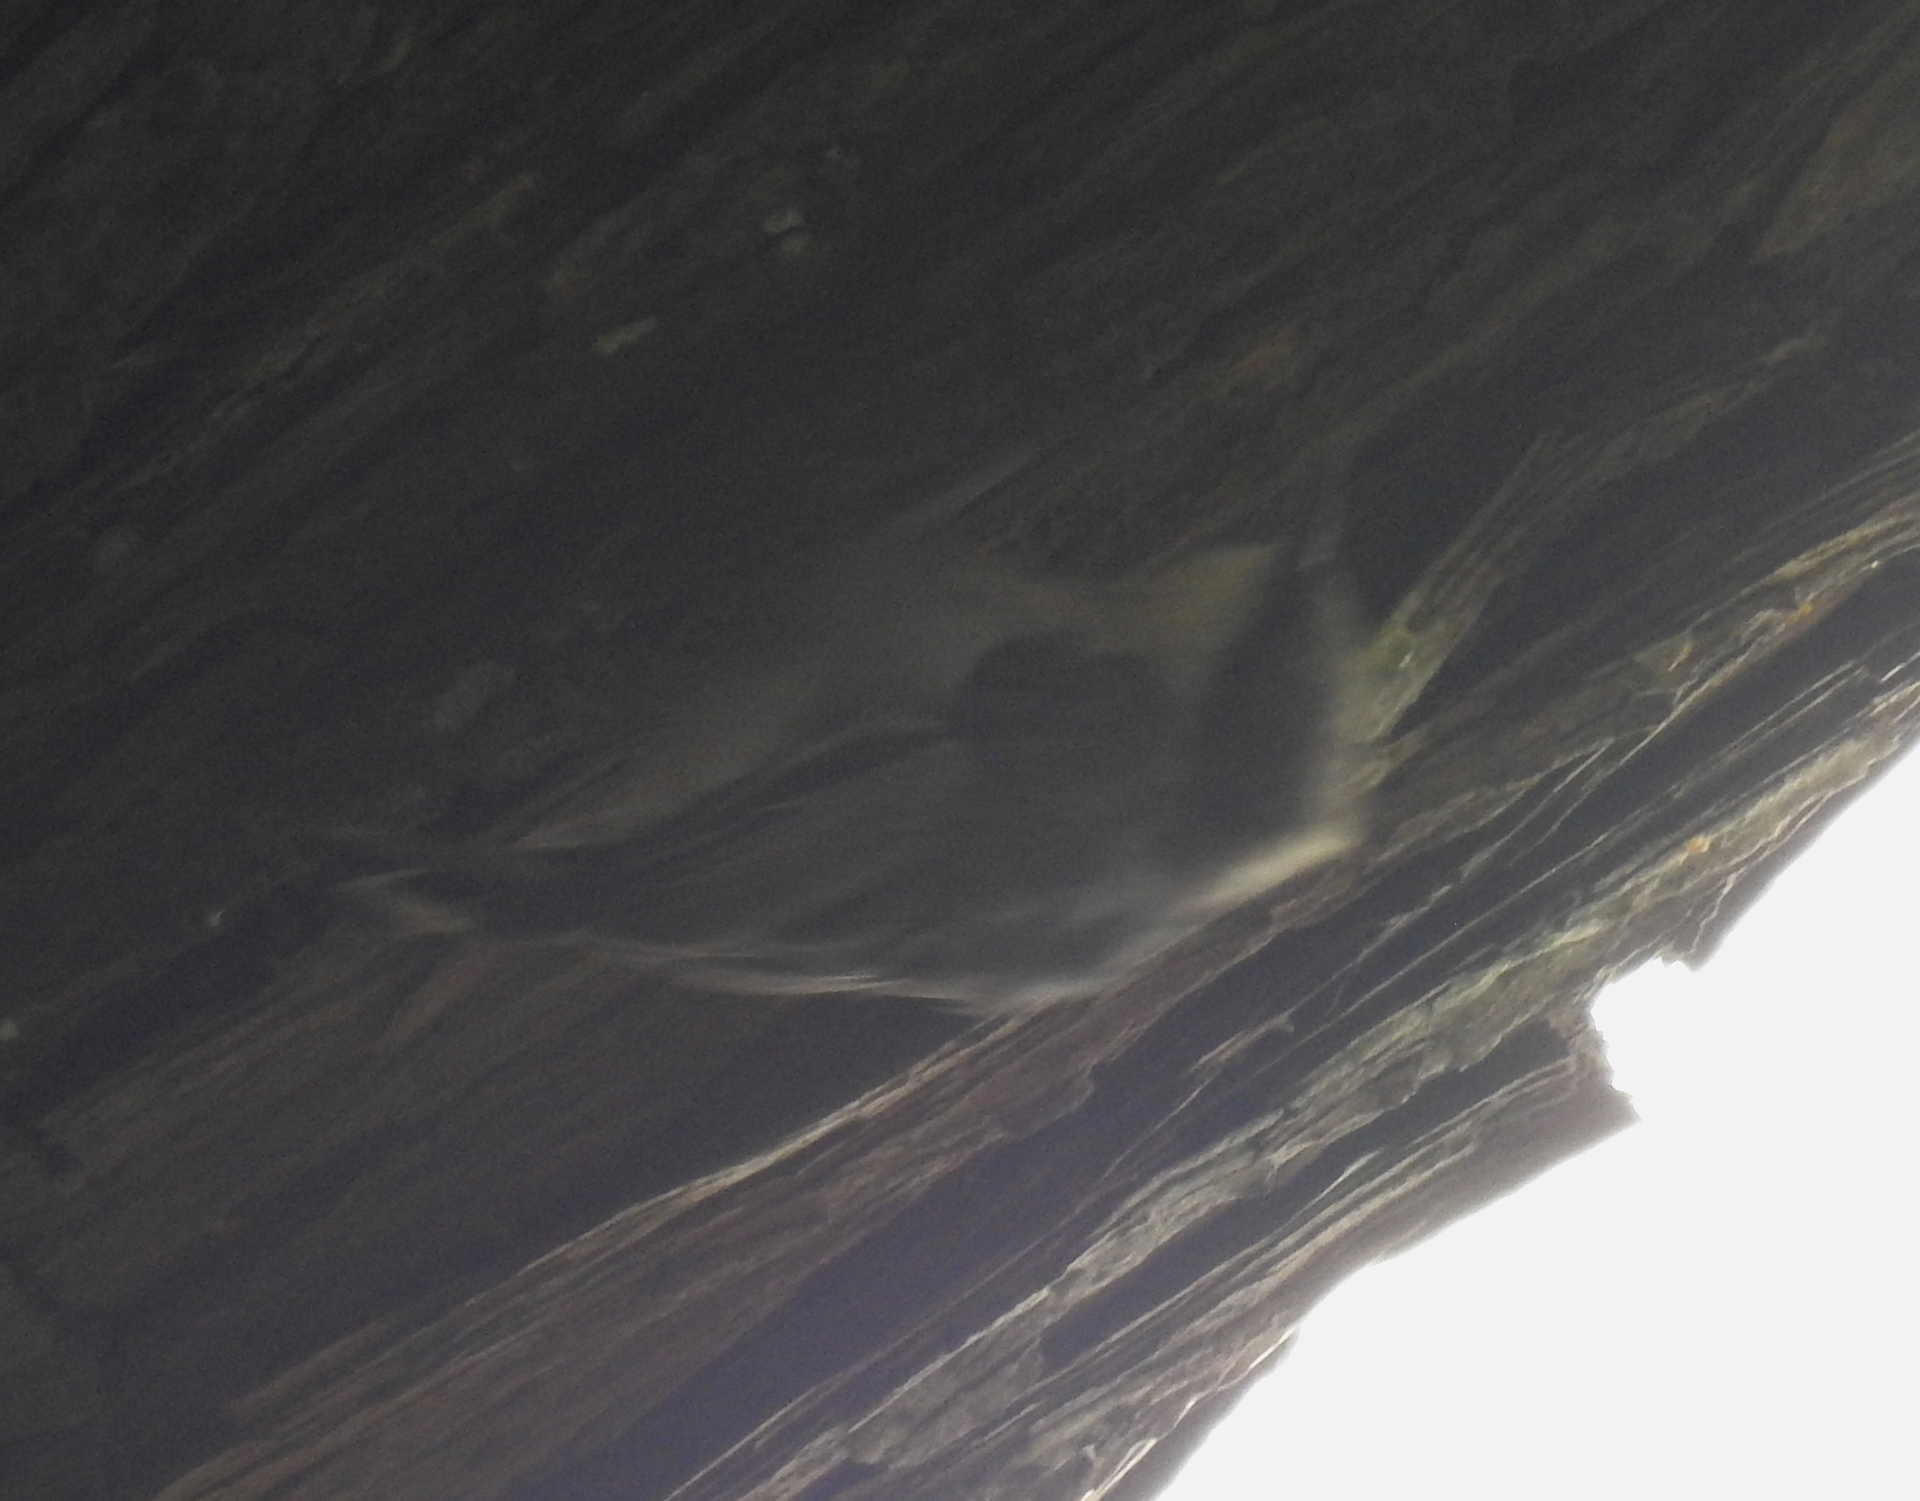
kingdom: Animalia
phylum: Chordata
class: Aves
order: Passeriformes
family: Sittidae
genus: Sitta
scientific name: Sitta pygmaea
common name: Pygmy nuthatch
